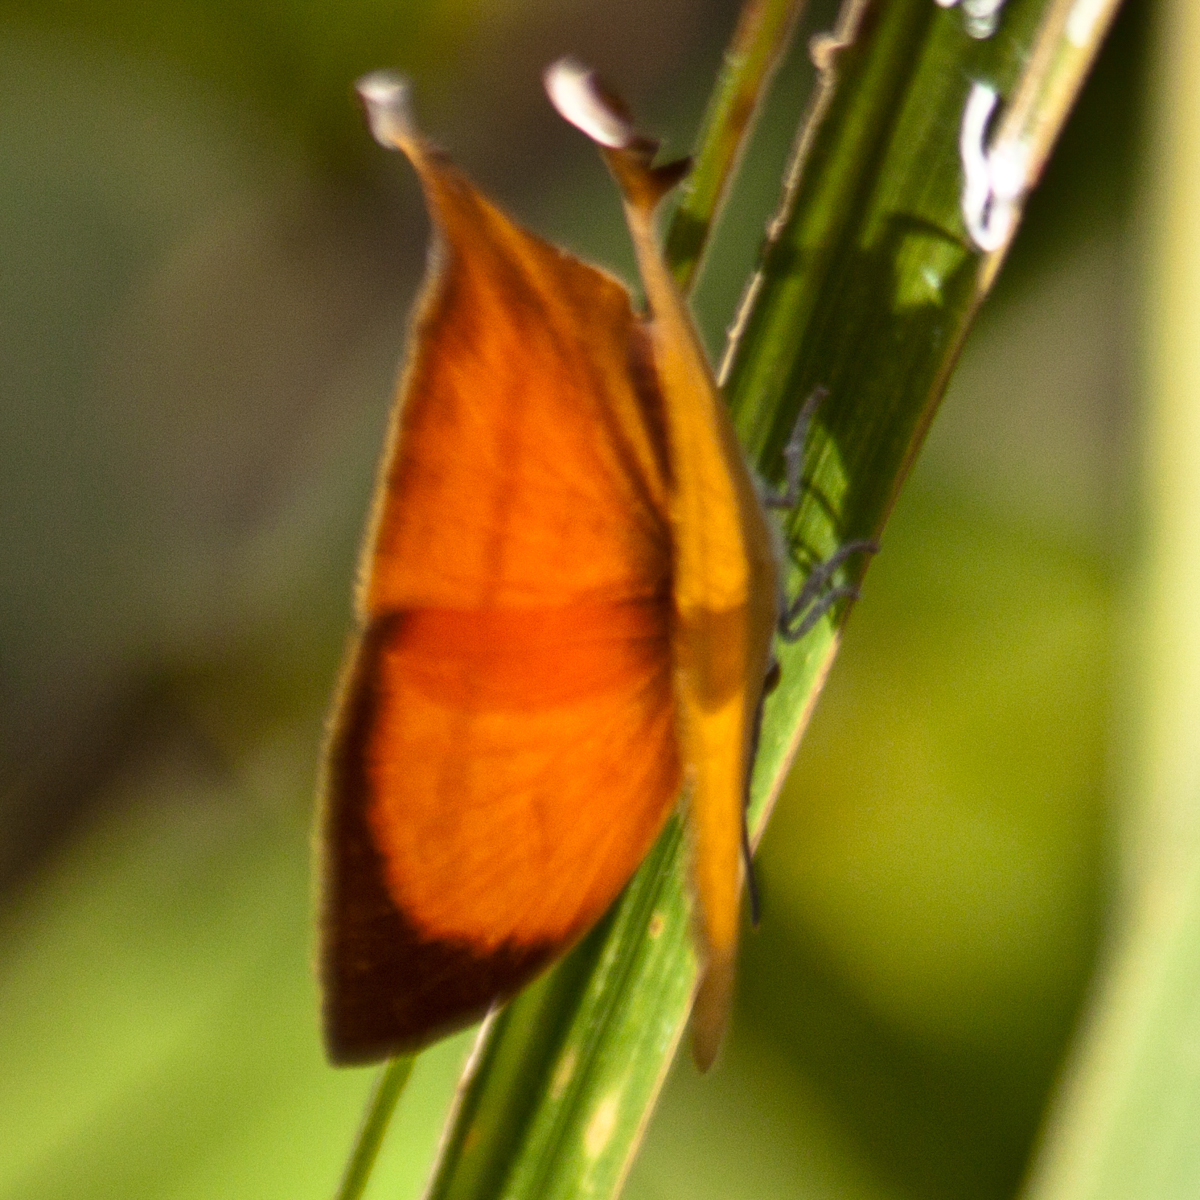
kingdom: Animalia
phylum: Arthropoda
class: Insecta
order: Lepidoptera
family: Lycaenidae
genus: Loxura
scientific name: Loxura atymnus
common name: Common yamfly
